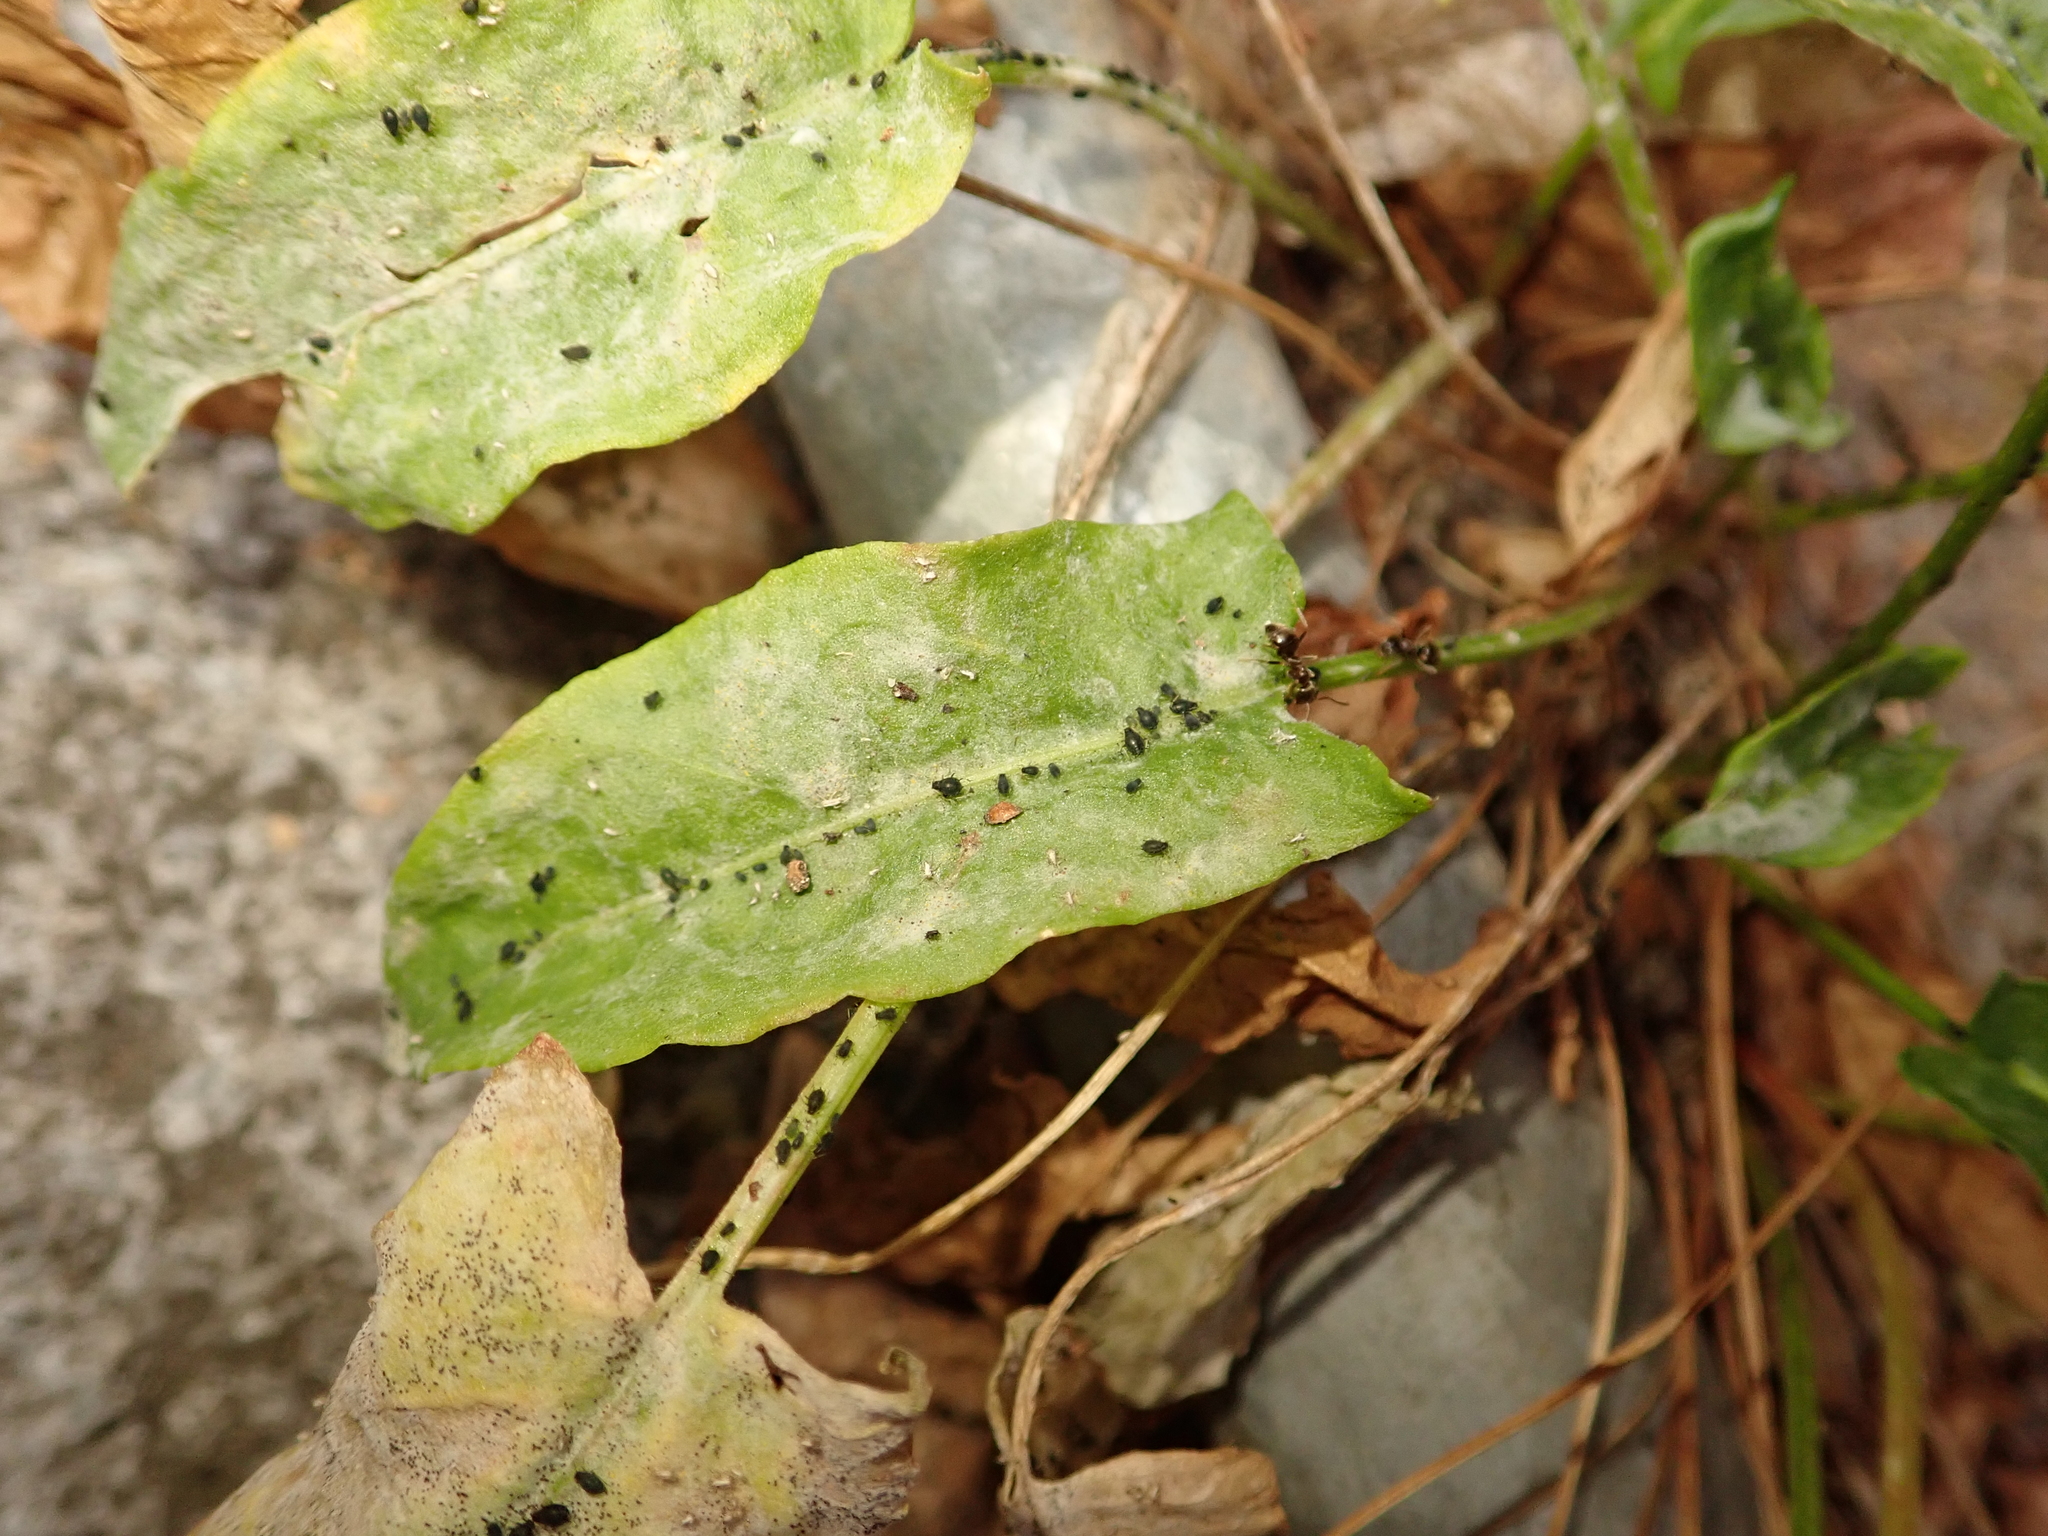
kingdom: Fungi
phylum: Ascomycota
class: Leotiomycetes
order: Helotiales
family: Erysiphaceae
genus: Erysiphe
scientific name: Erysiphe polygoni
